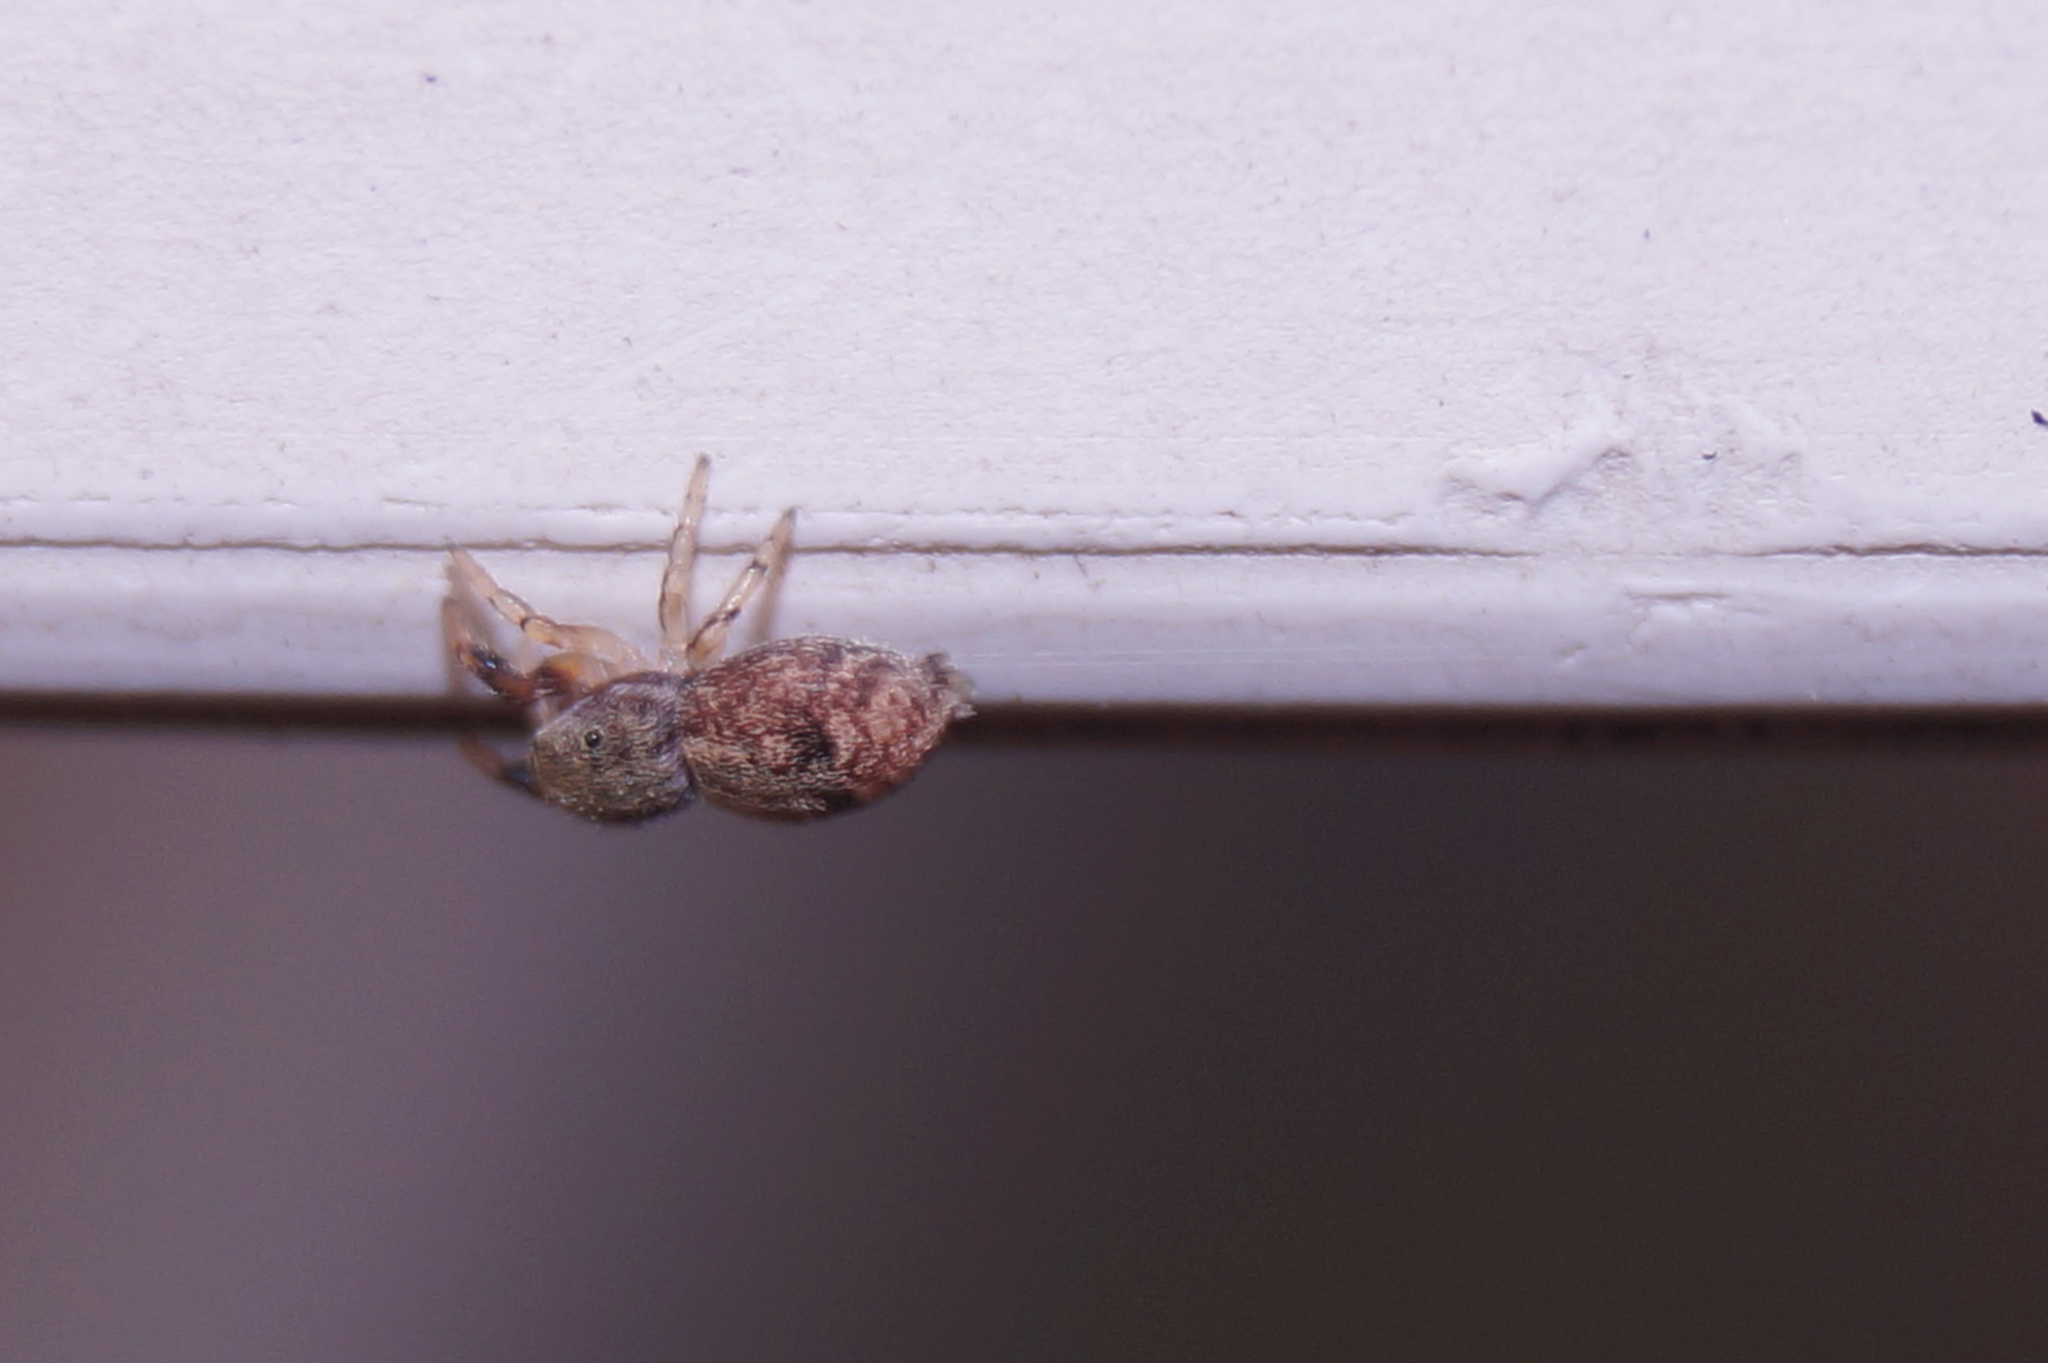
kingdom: Animalia
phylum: Arthropoda
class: Arachnida
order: Araneae
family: Salticidae
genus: Ballus
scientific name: Ballus chalybeius
